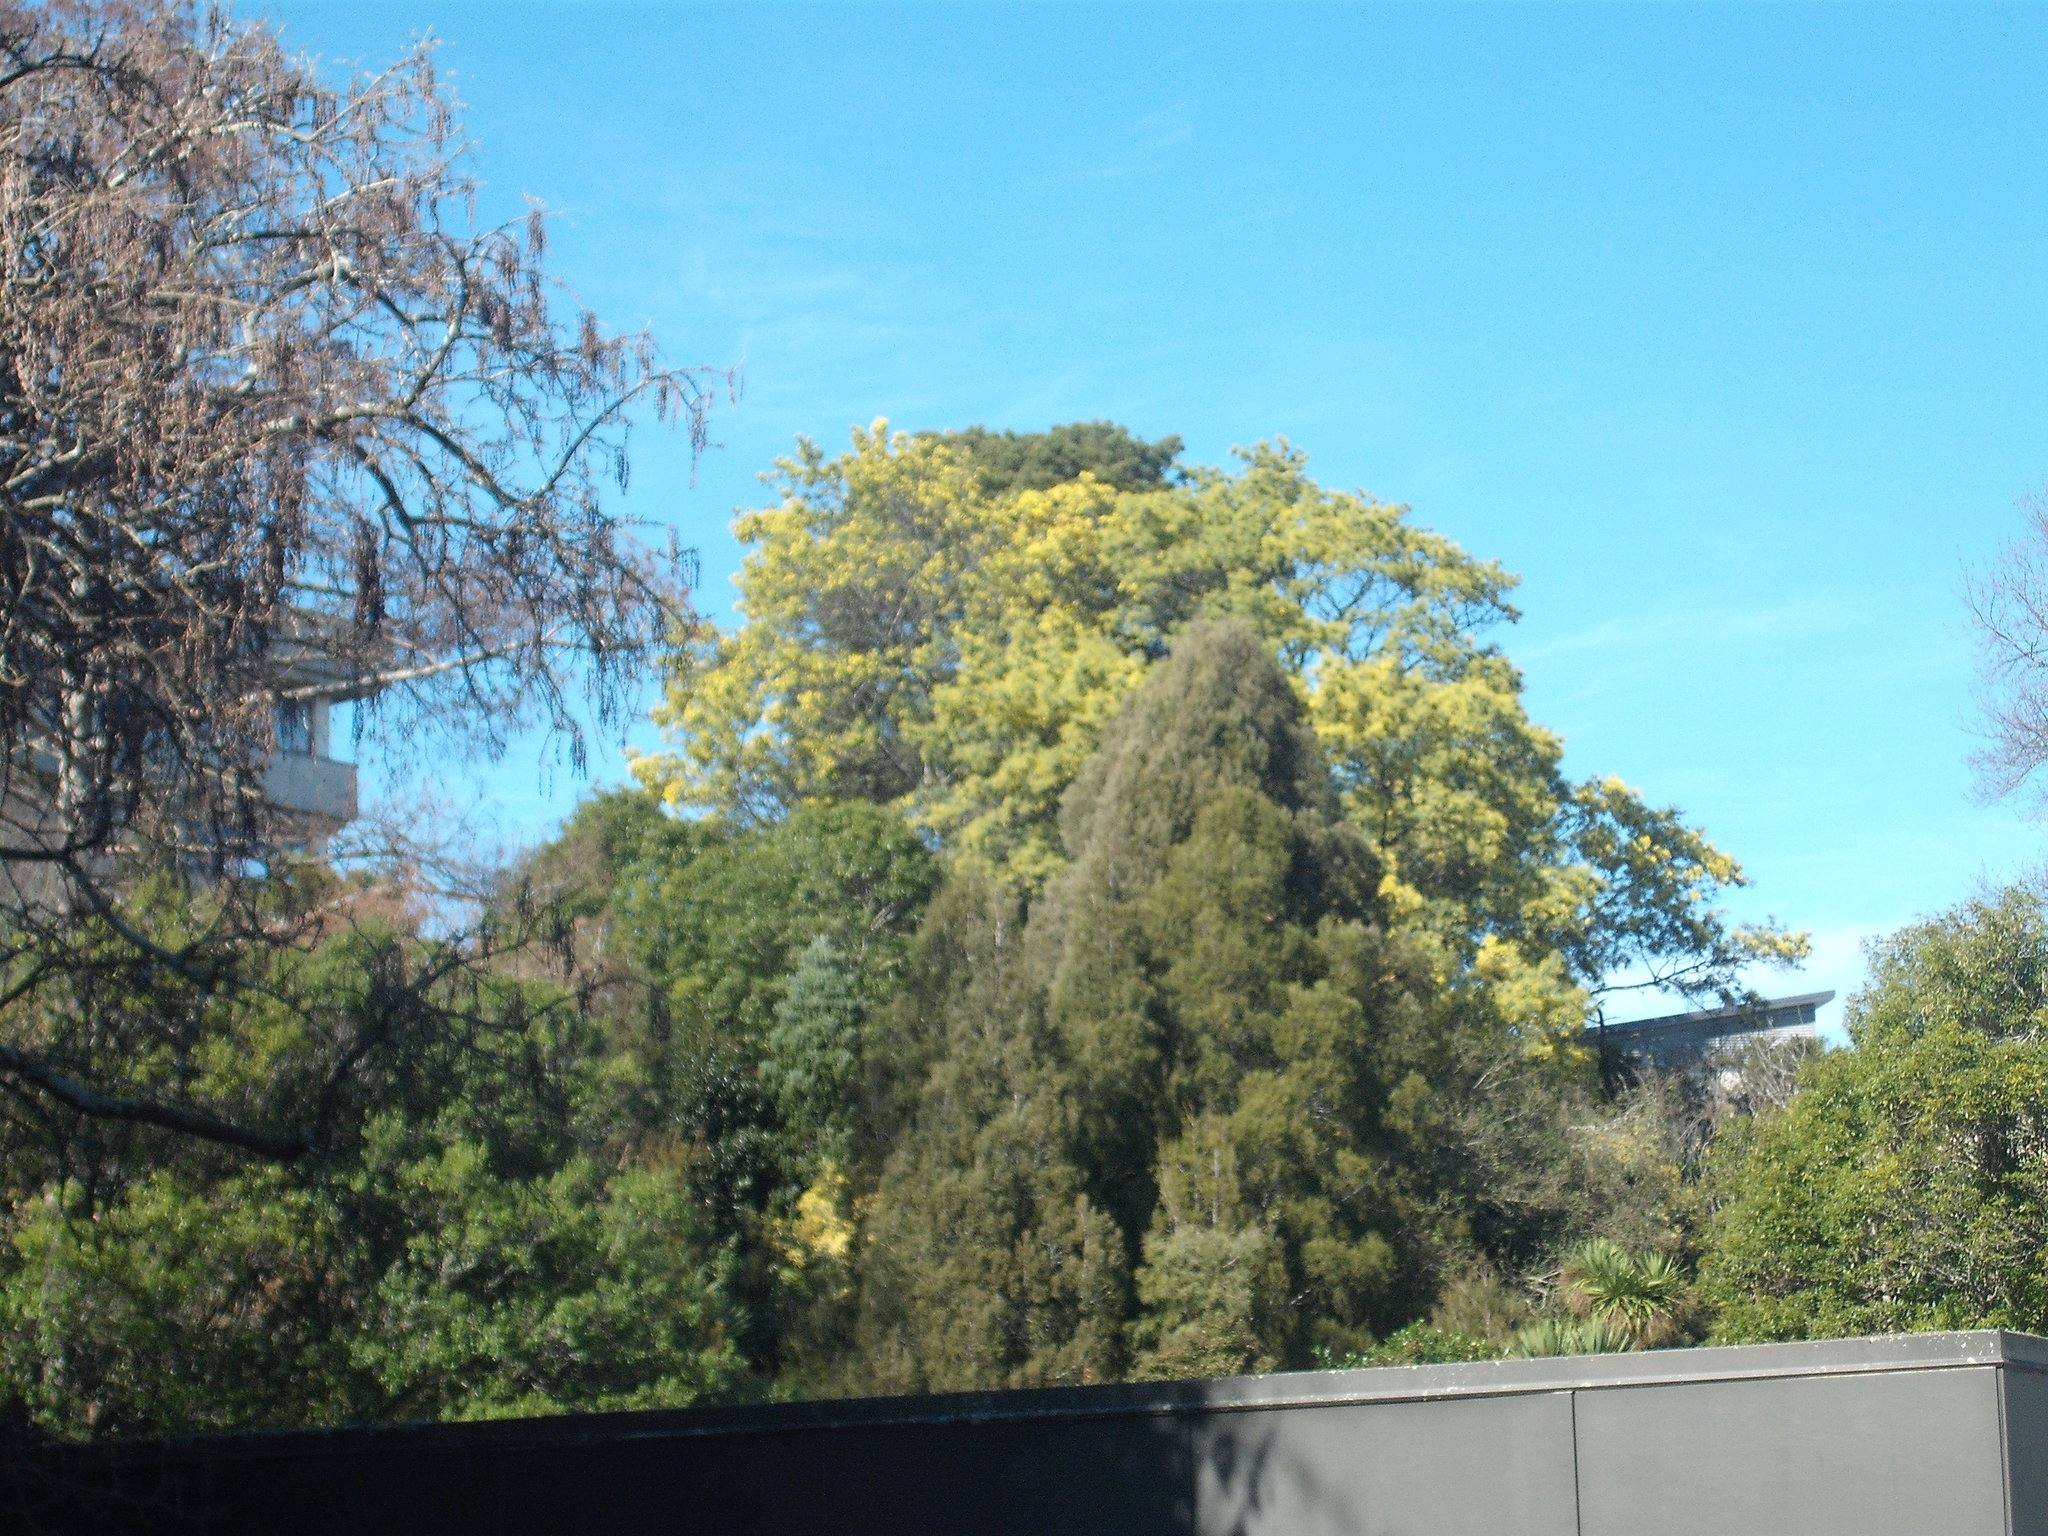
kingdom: Plantae
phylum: Tracheophyta
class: Magnoliopsida
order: Fabales
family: Fabaceae
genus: Acacia
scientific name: Acacia dealbata
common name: Silver wattle
